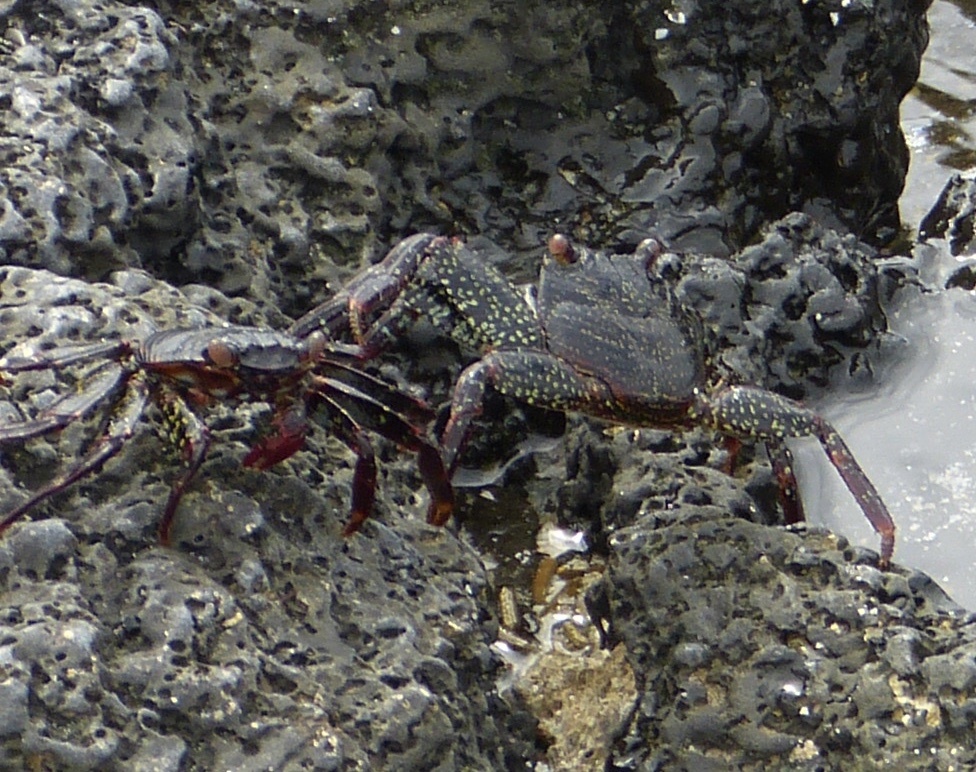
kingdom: Animalia
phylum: Arthropoda
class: Malacostraca
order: Decapoda
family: Grapsidae
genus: Grapsus
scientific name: Grapsus grapsus
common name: Sally lightfoot
